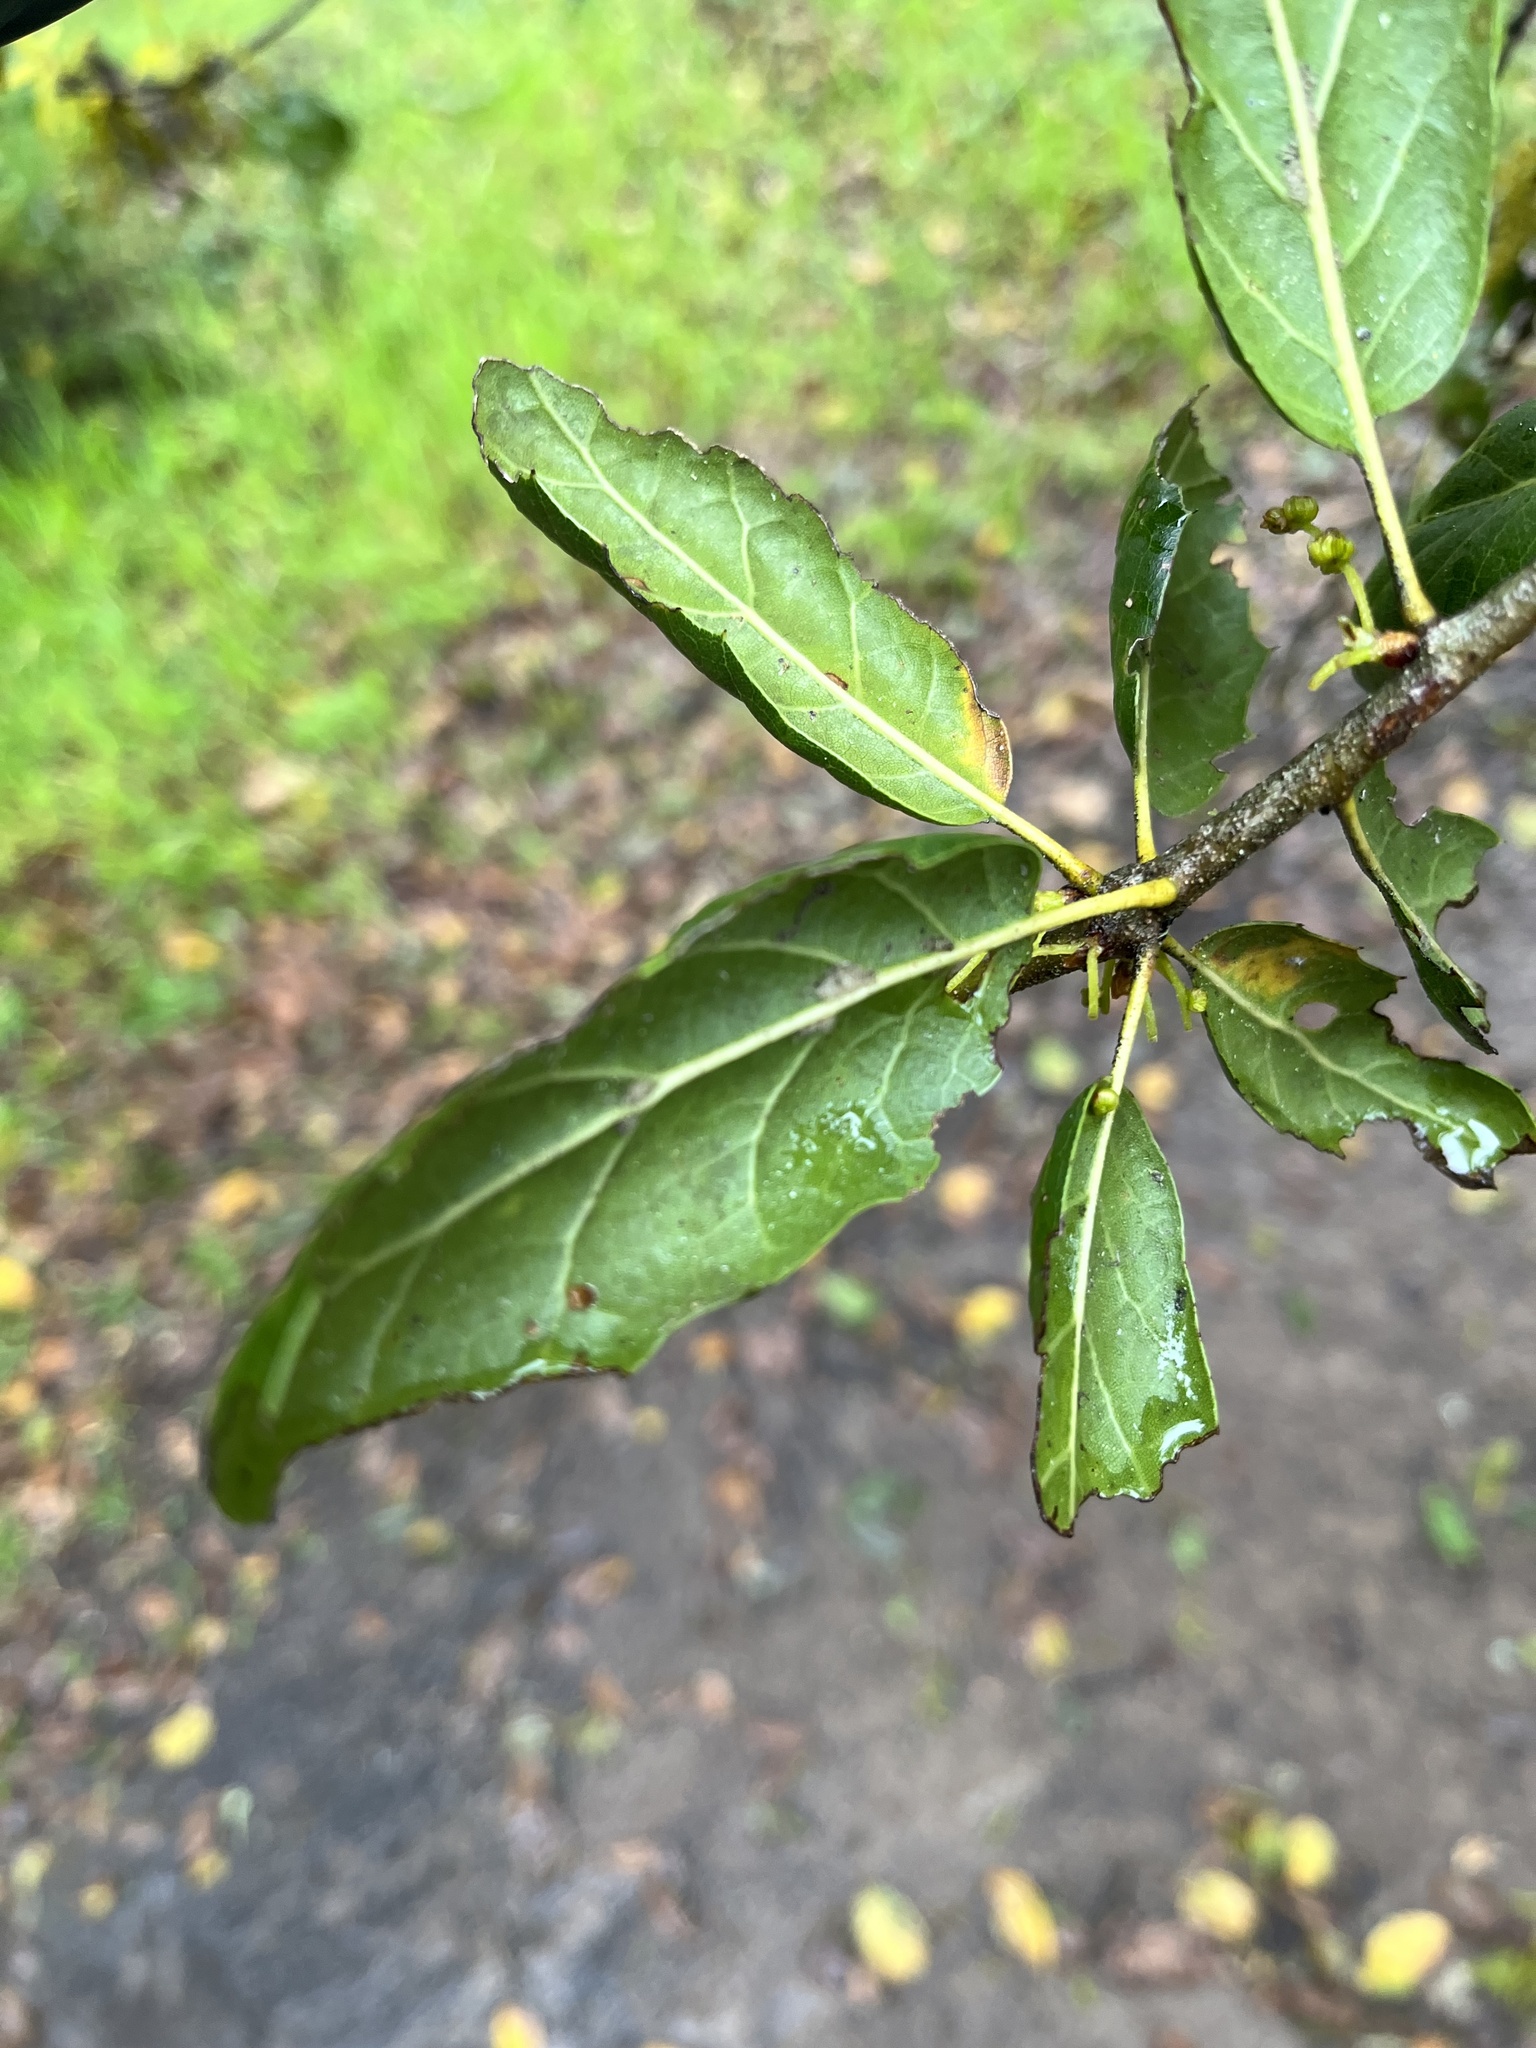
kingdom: Plantae
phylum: Tracheophyta
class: Magnoliopsida
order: Fagales
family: Fagaceae
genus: Quercus
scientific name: Quercus agrifolia
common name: California live oak
